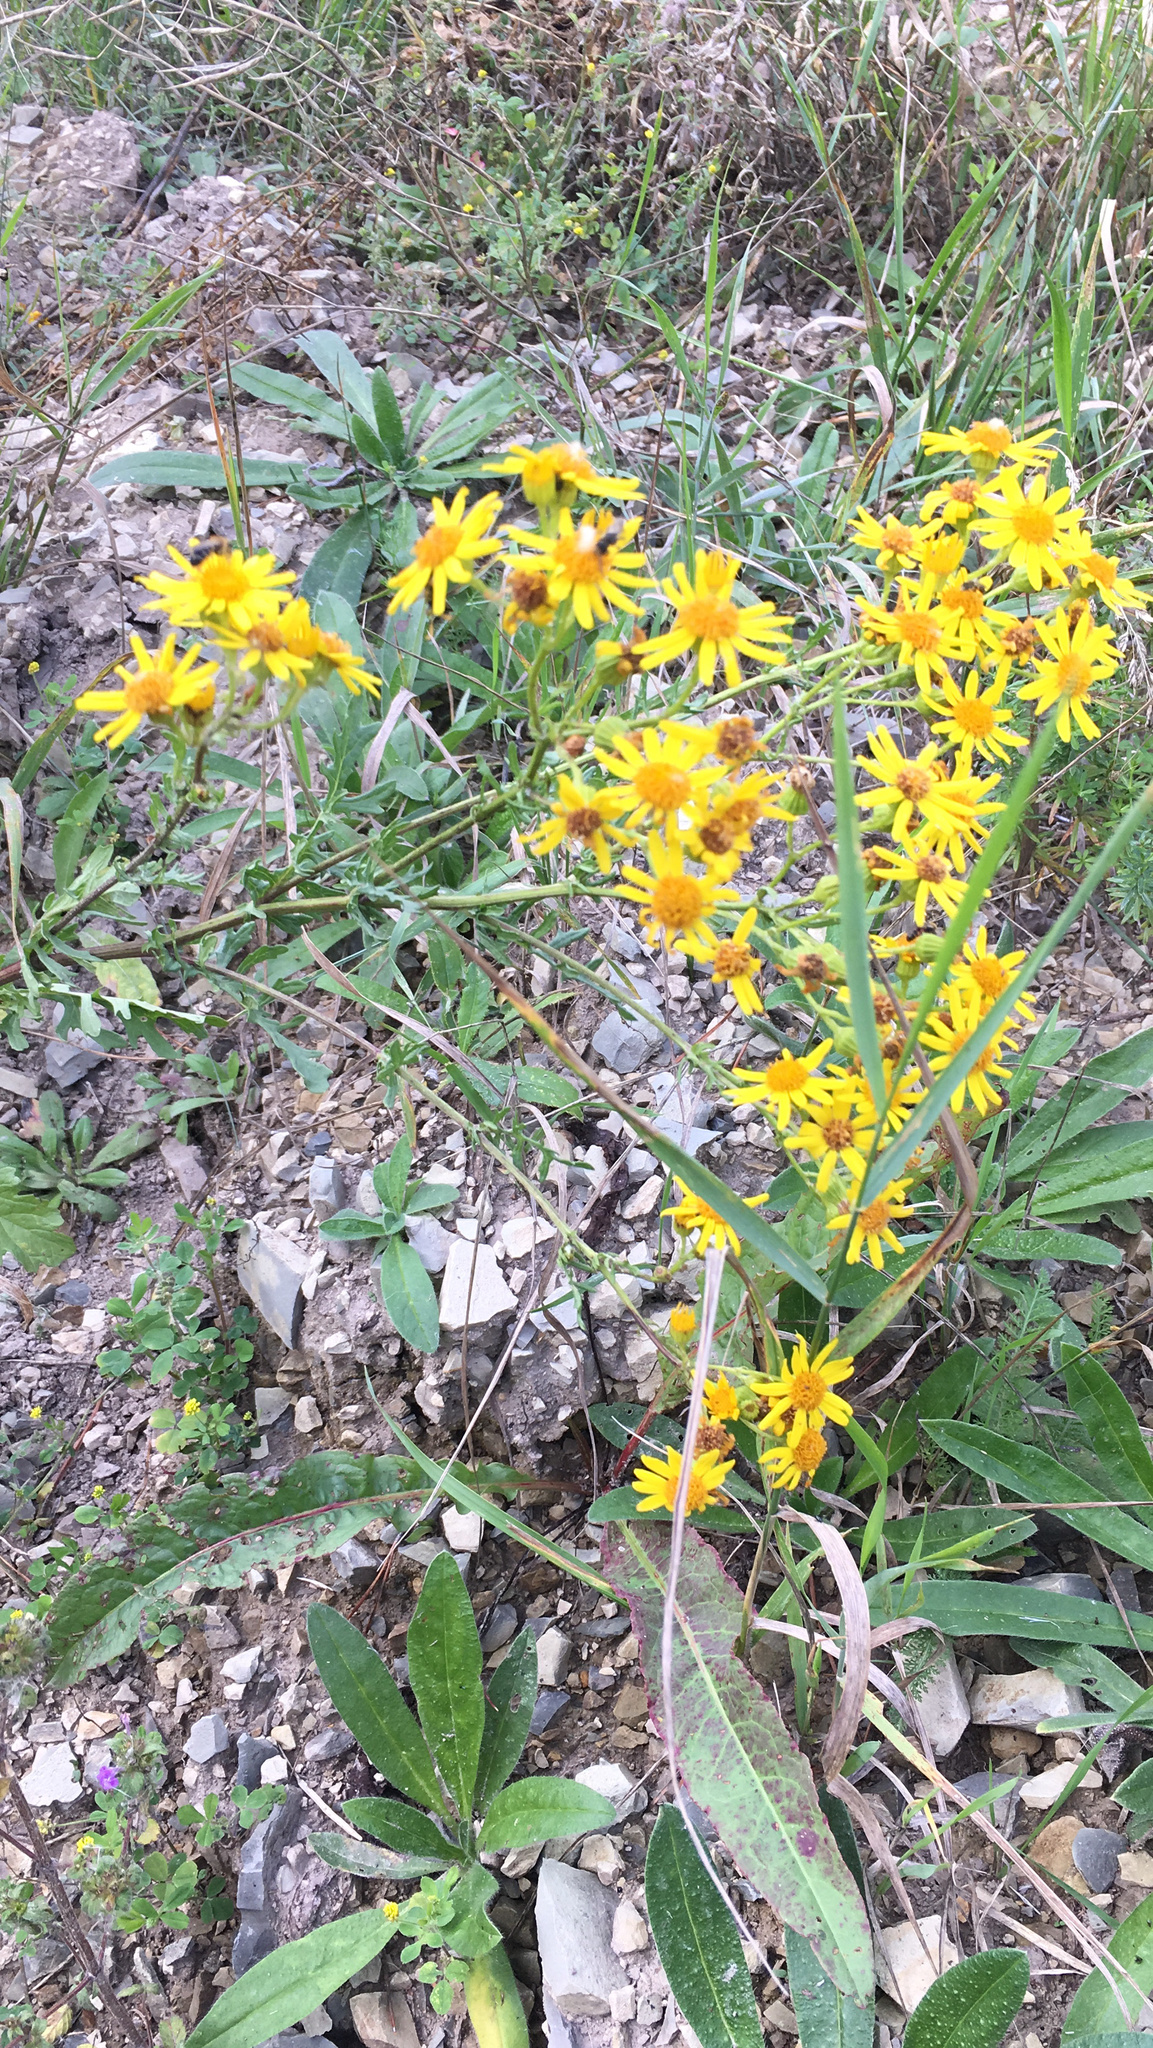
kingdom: Plantae
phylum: Tracheophyta
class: Magnoliopsida
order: Asterales
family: Asteraceae
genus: Jacobaea
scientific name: Jacobaea vulgaris
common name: Stinking willie
